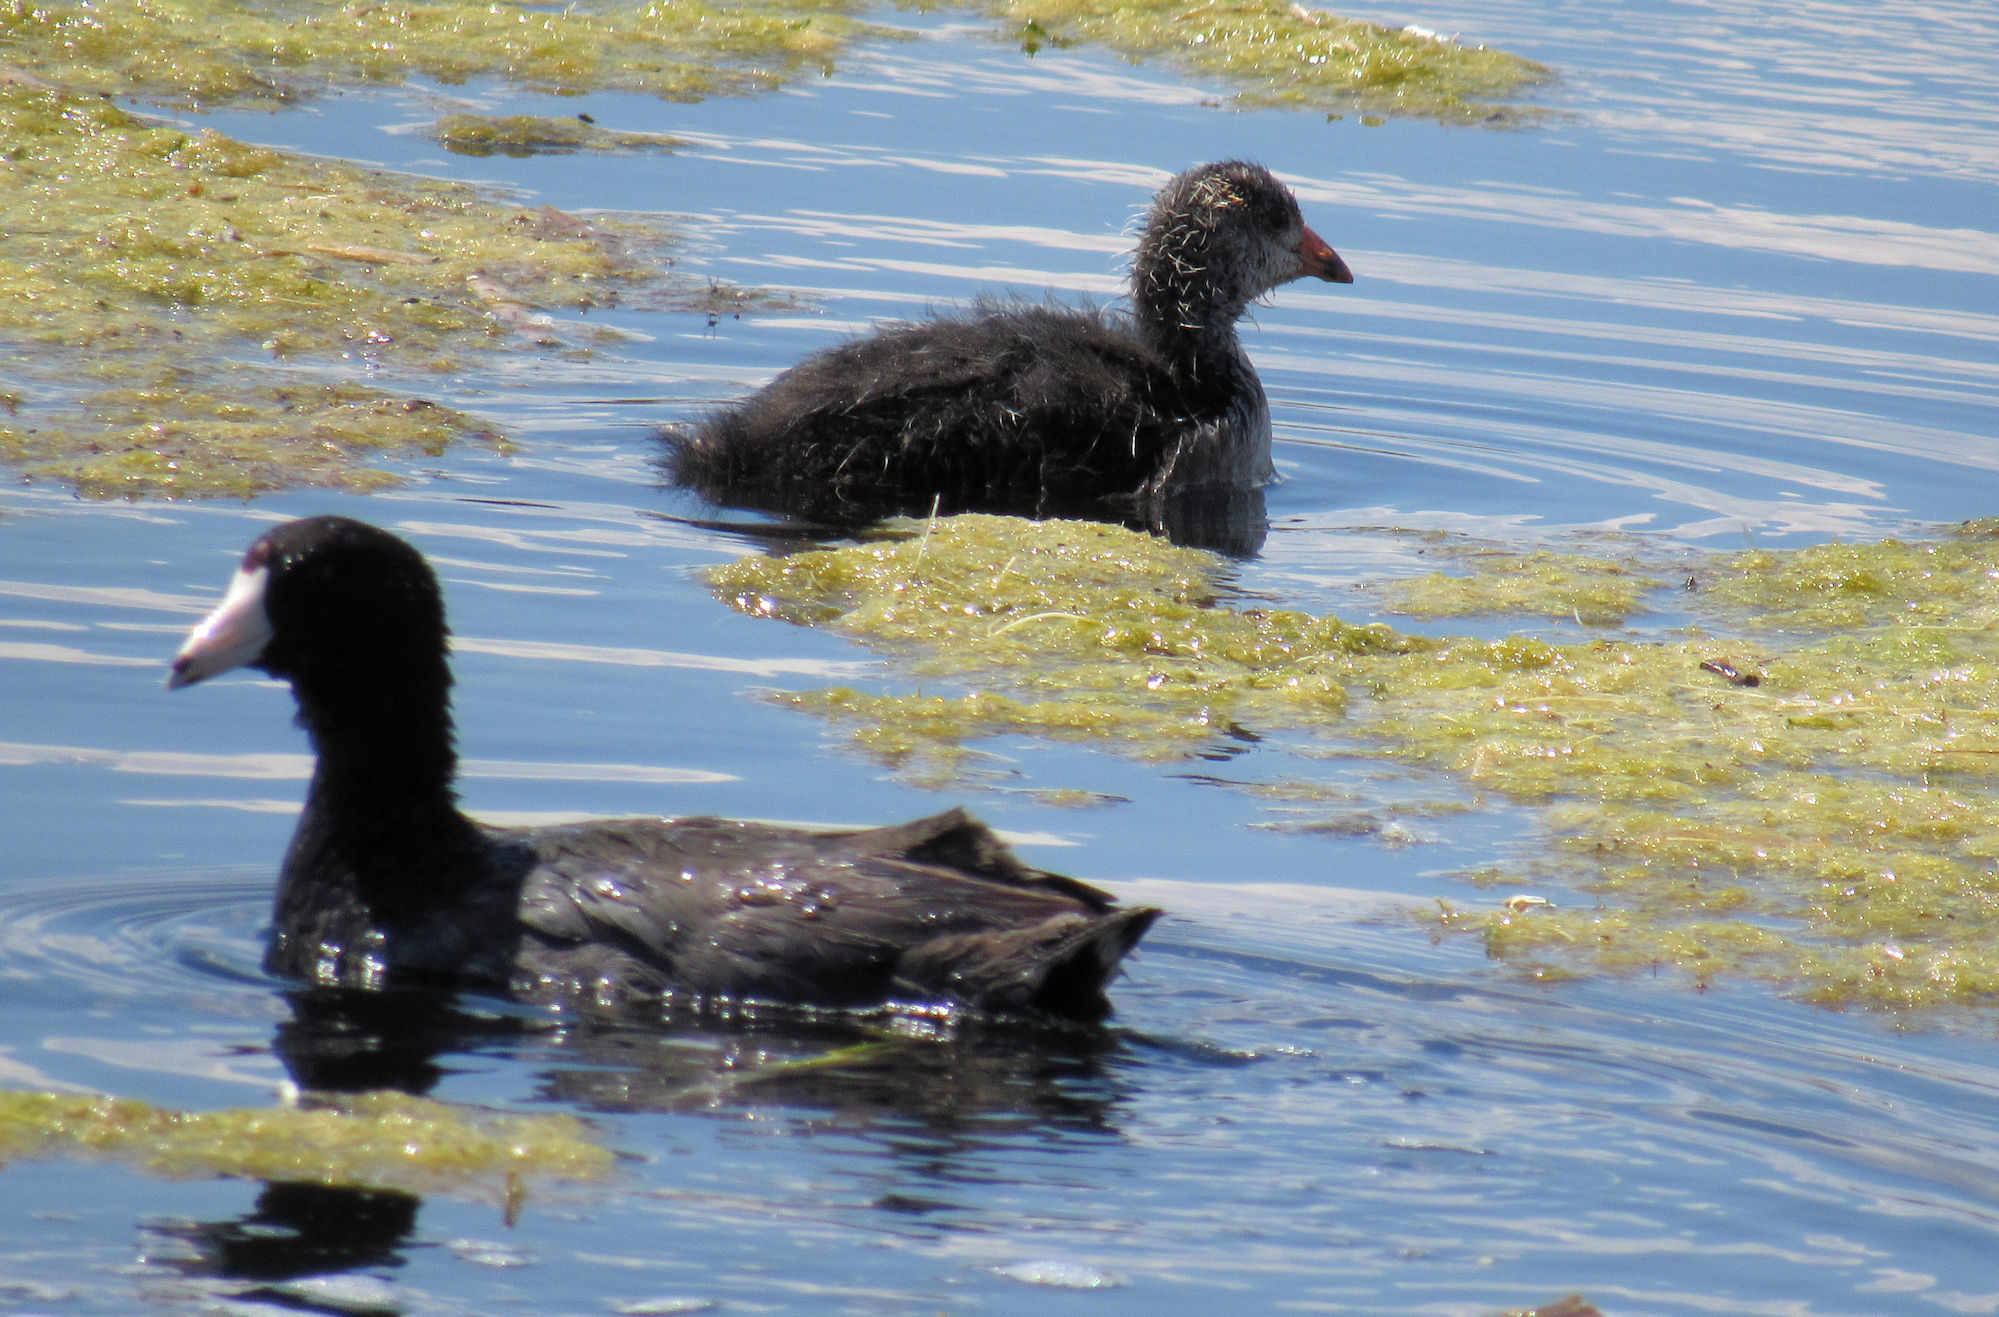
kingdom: Animalia
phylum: Chordata
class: Aves
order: Gruiformes
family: Rallidae
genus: Fulica
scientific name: Fulica americana
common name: American coot
